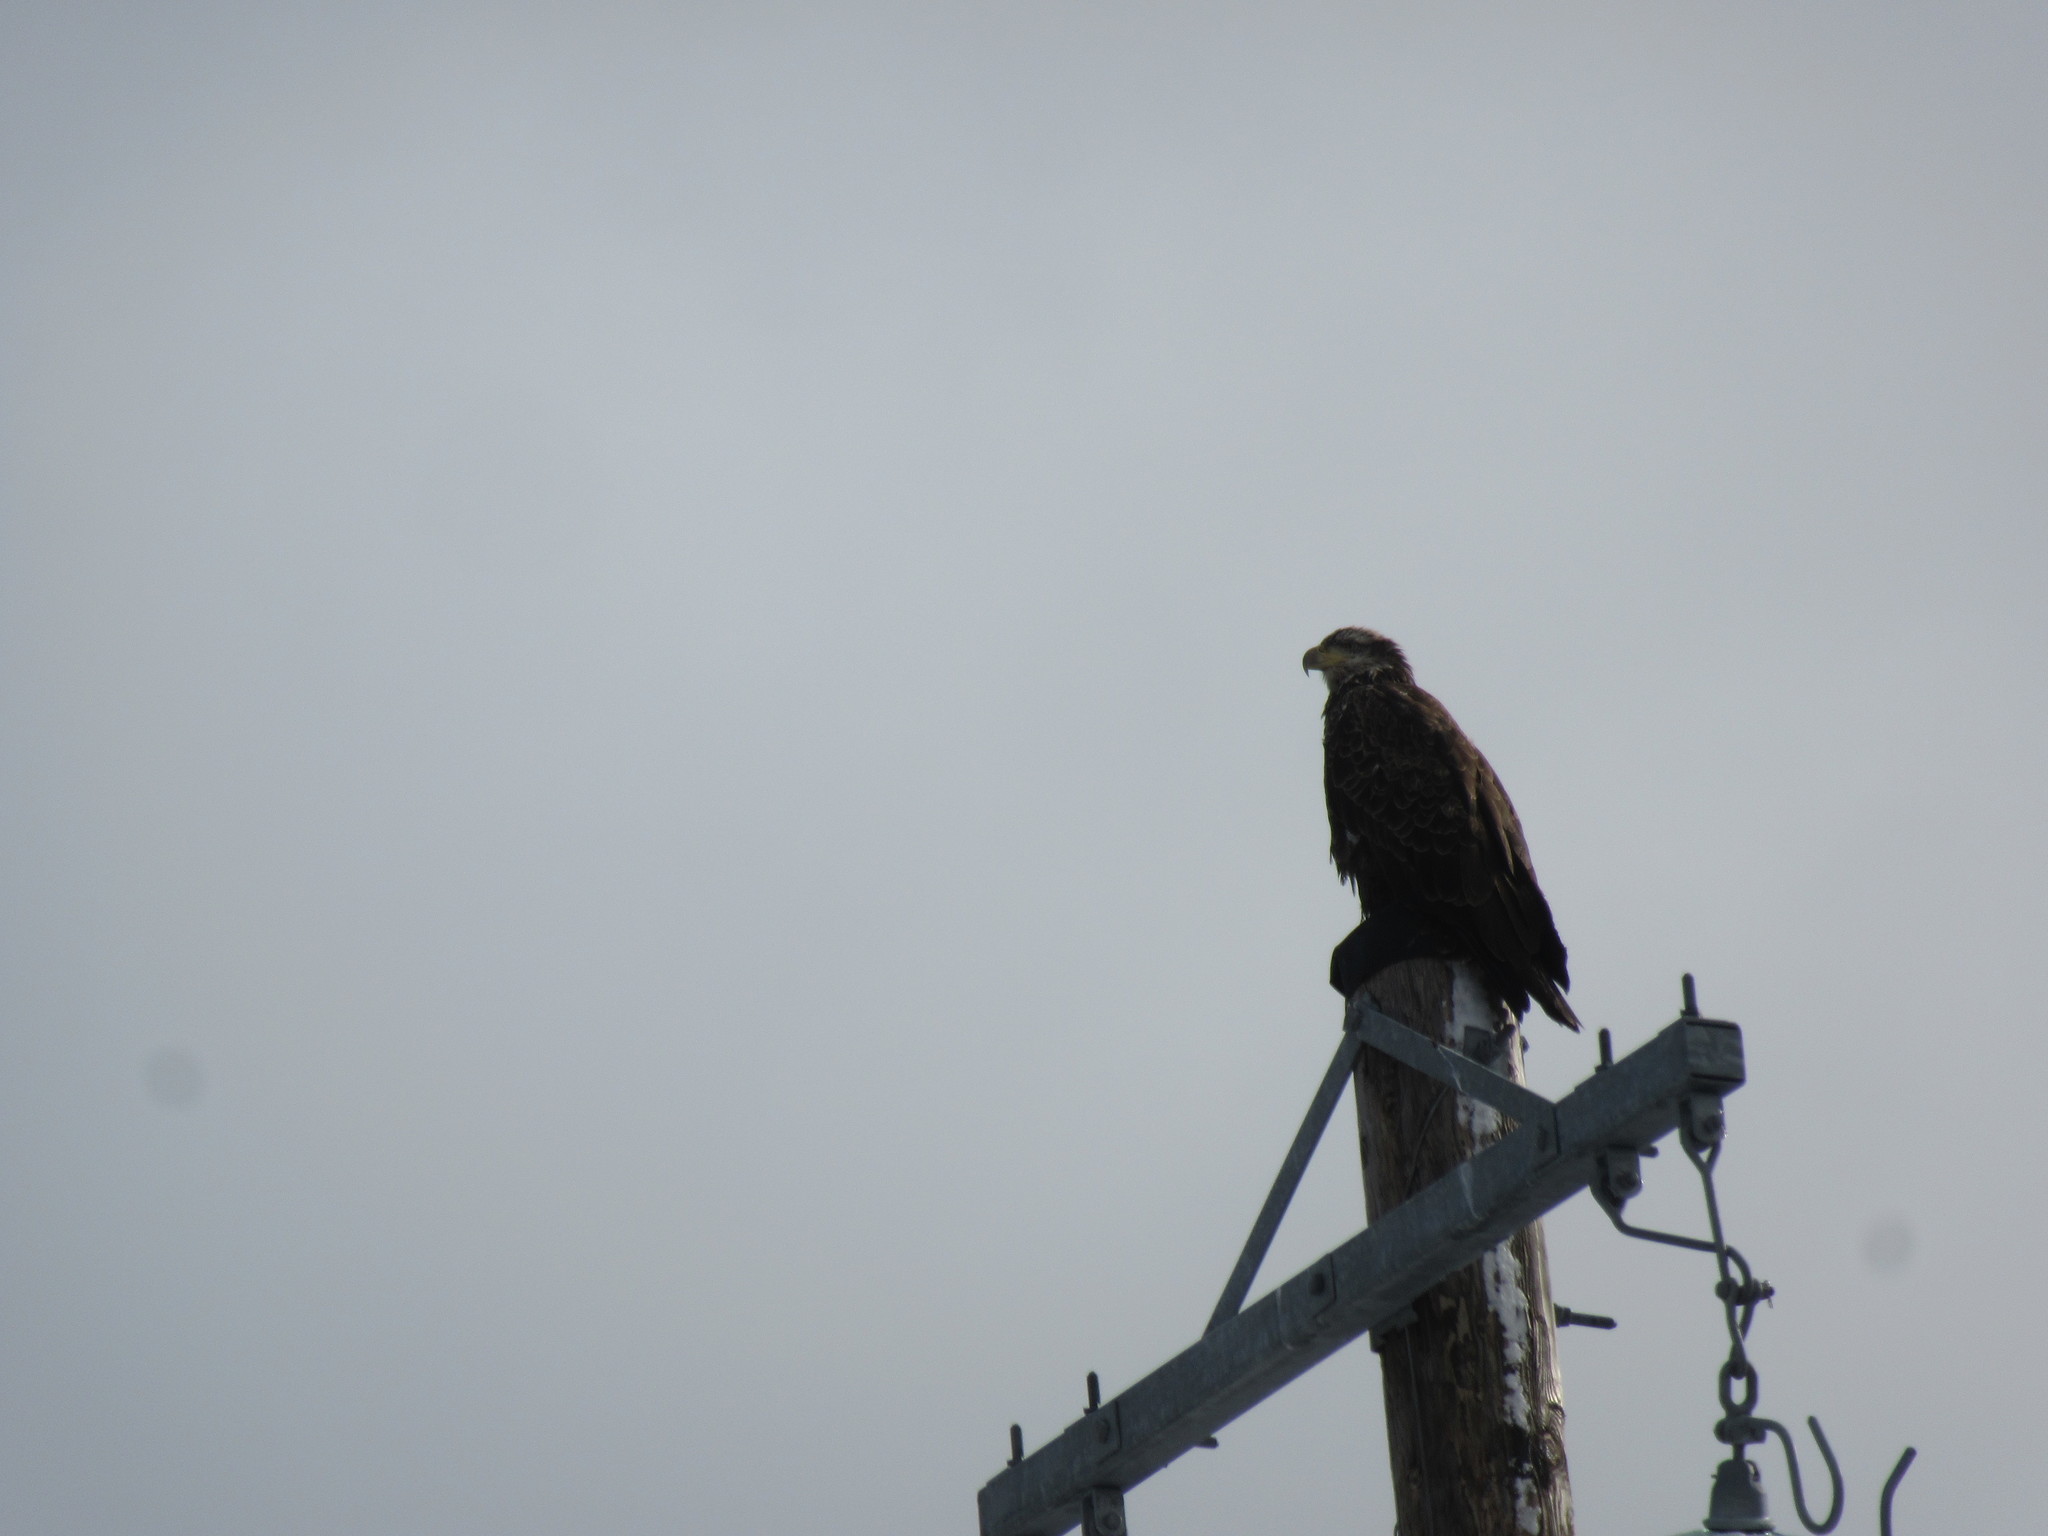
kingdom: Animalia
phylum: Chordata
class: Aves
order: Accipitriformes
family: Accipitridae
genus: Haliaeetus
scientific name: Haliaeetus leucocephalus
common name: Bald eagle
